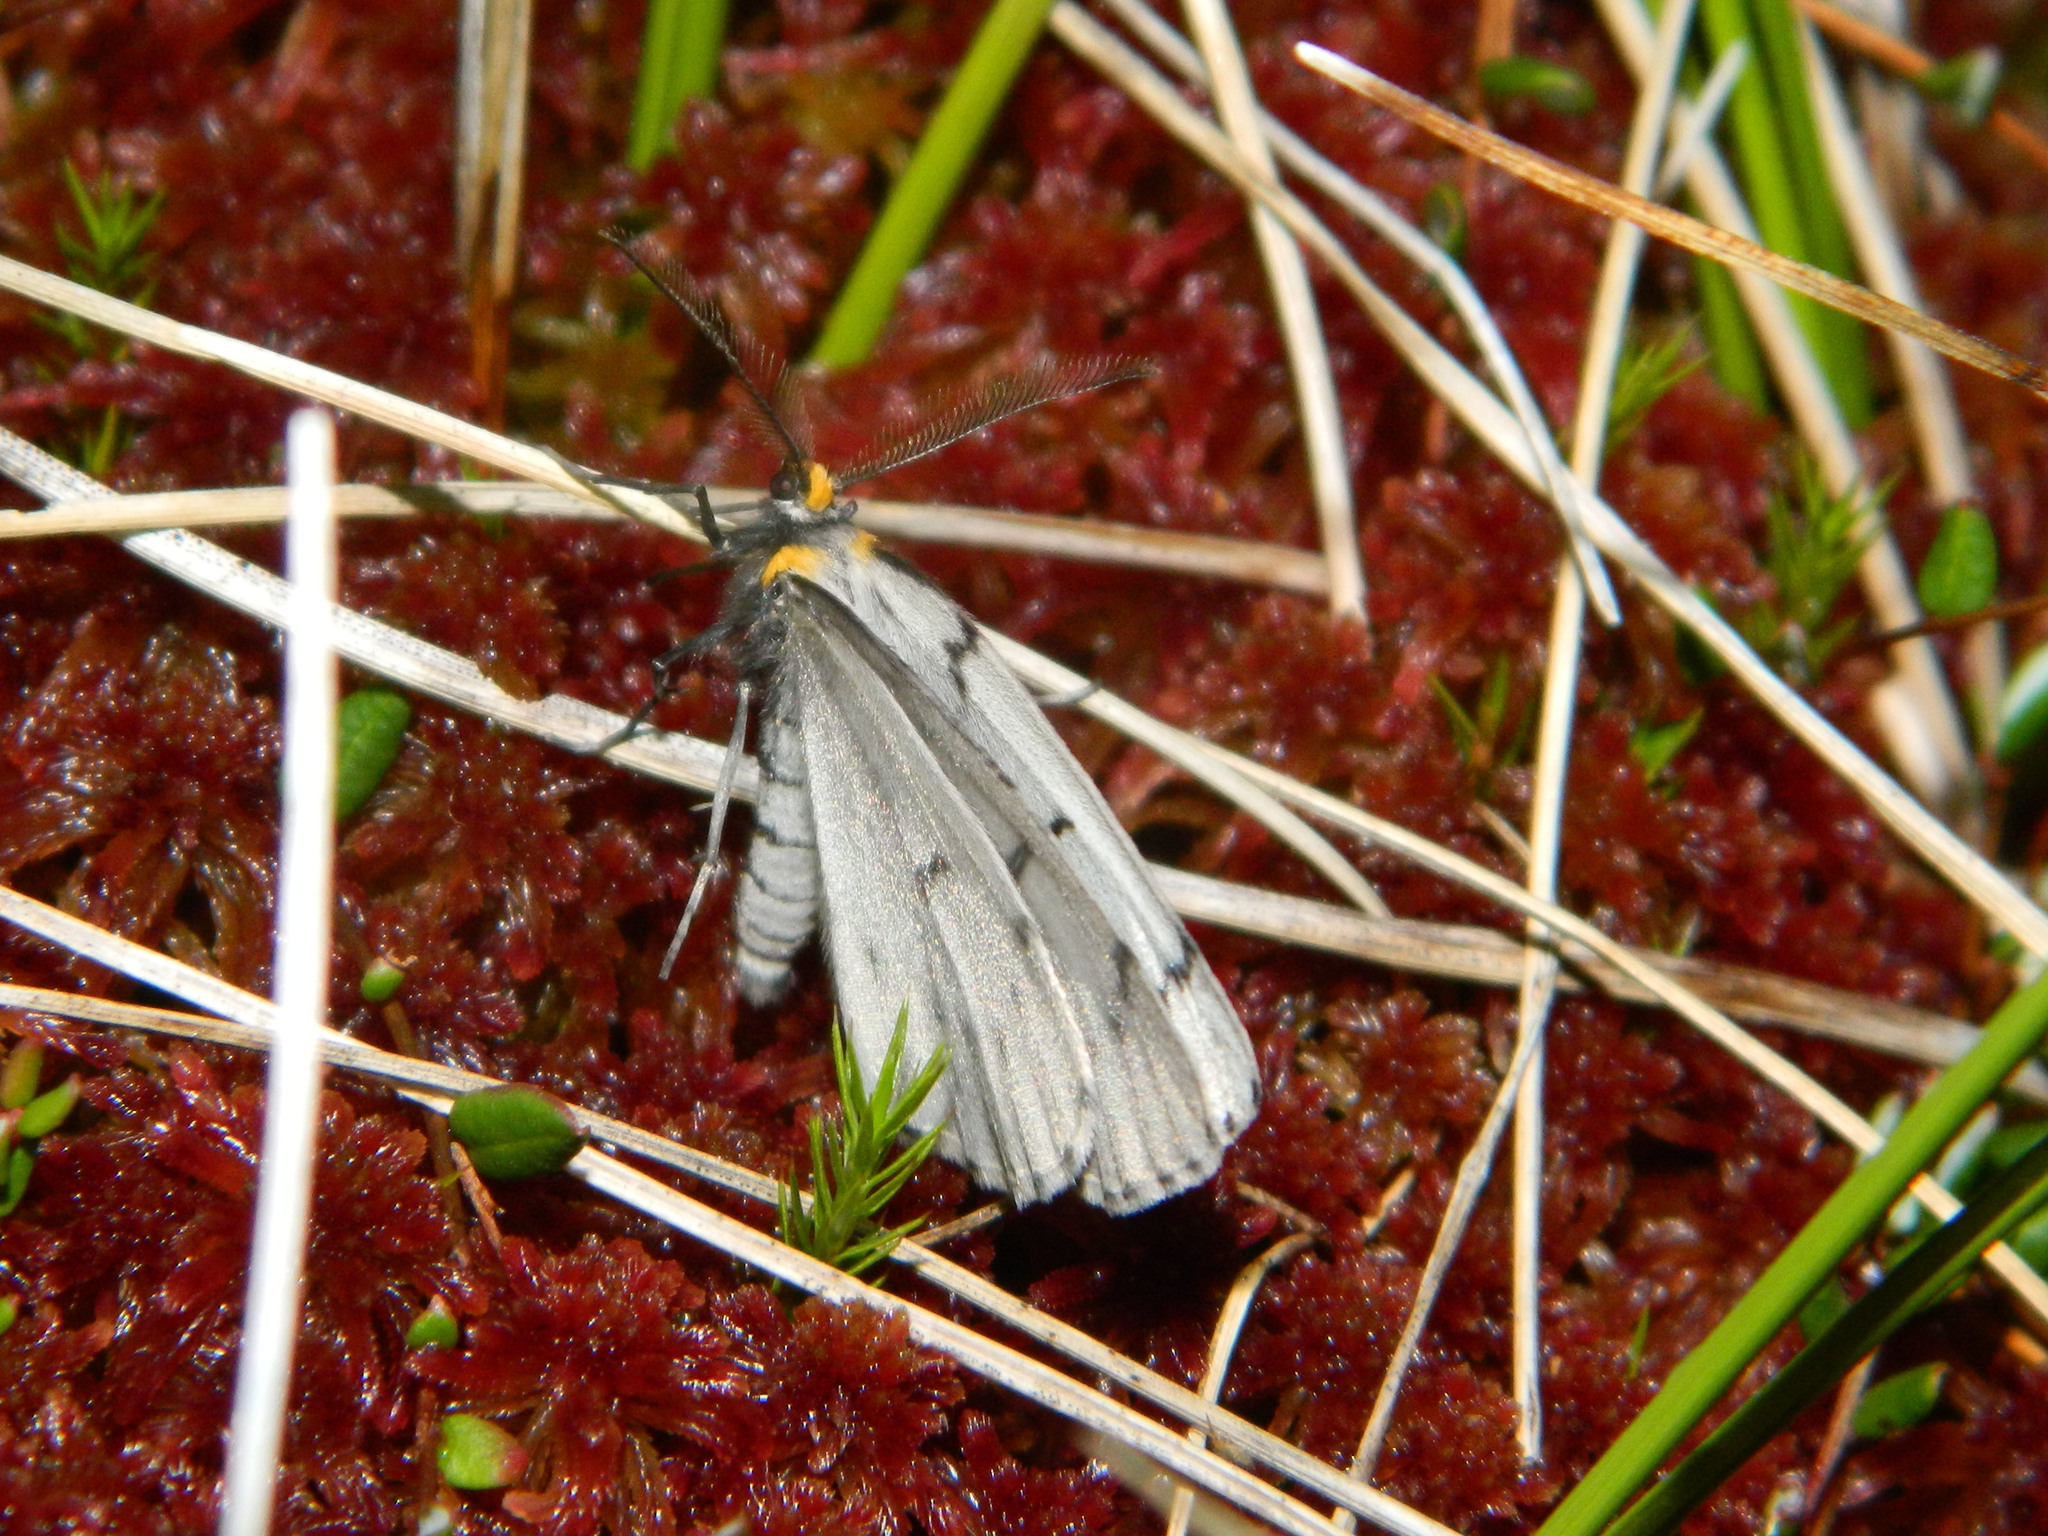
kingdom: Animalia
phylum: Arthropoda
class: Insecta
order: Lepidoptera
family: Geometridae
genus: Cingilia
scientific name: Cingilia catenaria
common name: Chain-dotted geometer
